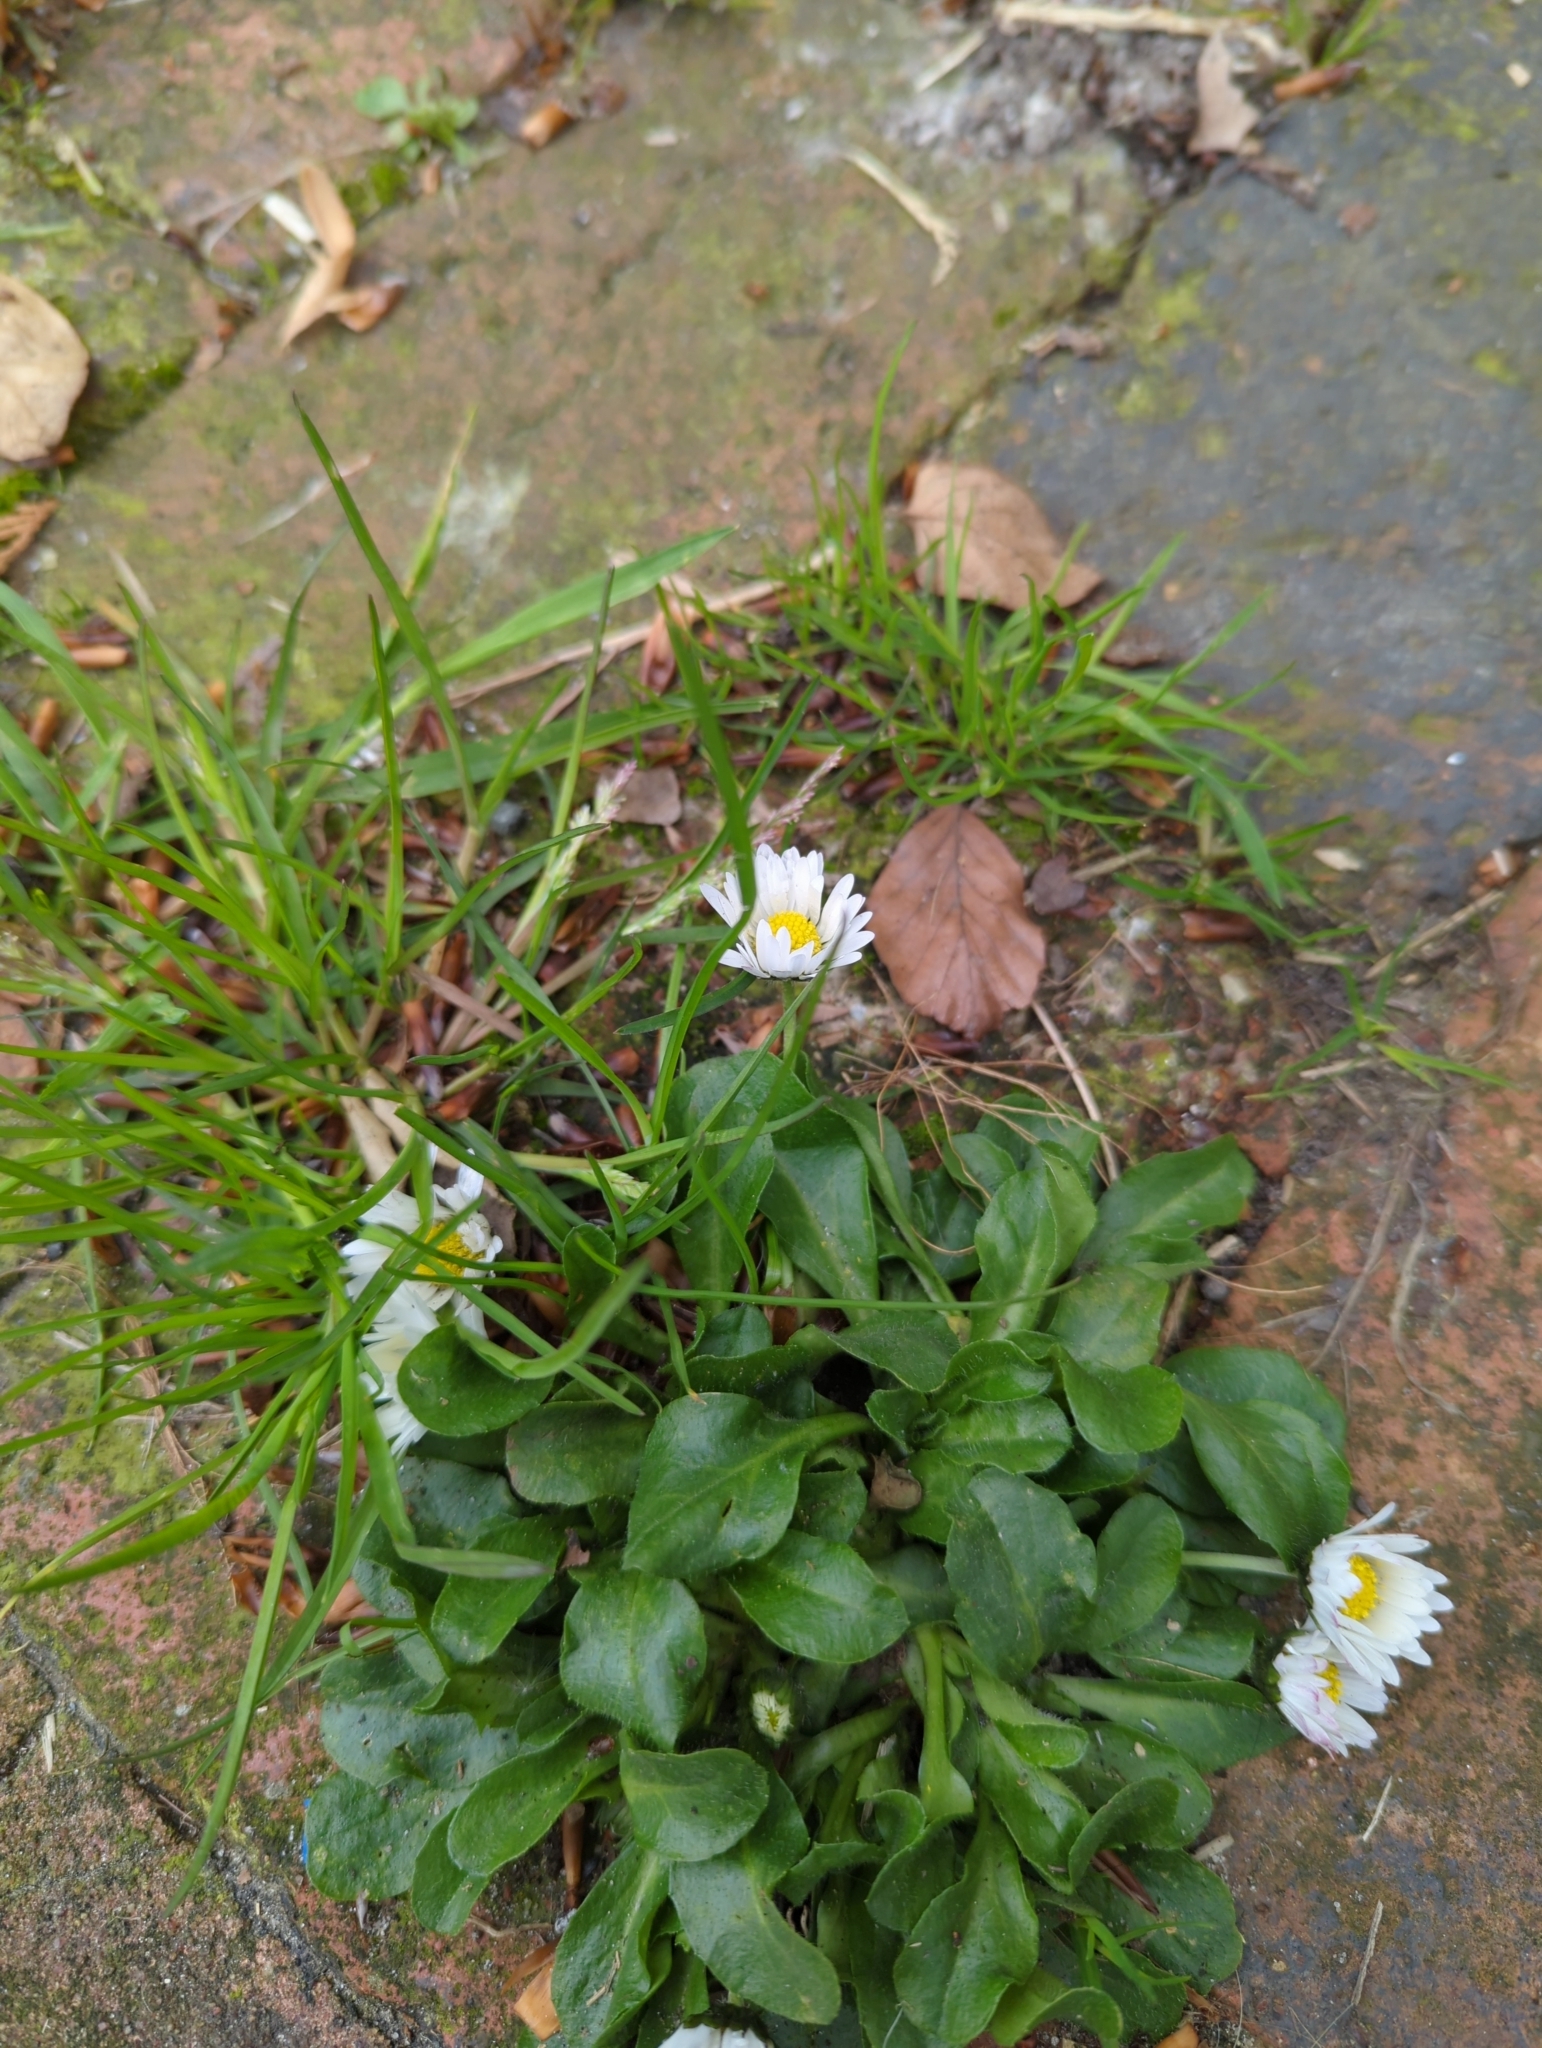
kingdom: Plantae
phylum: Tracheophyta
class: Magnoliopsida
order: Asterales
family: Asteraceae
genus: Bellis
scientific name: Bellis perennis
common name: Lawndaisy
